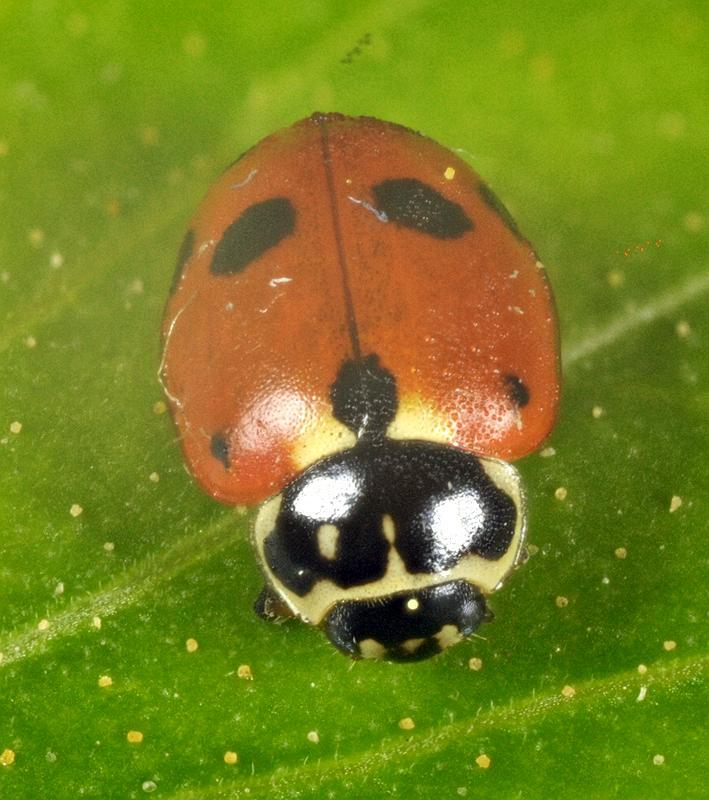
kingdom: Animalia
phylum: Arthropoda
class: Insecta
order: Coleoptera
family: Coccinellidae
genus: Hippodamia
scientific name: Hippodamia variegata
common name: Ladybird beetle
